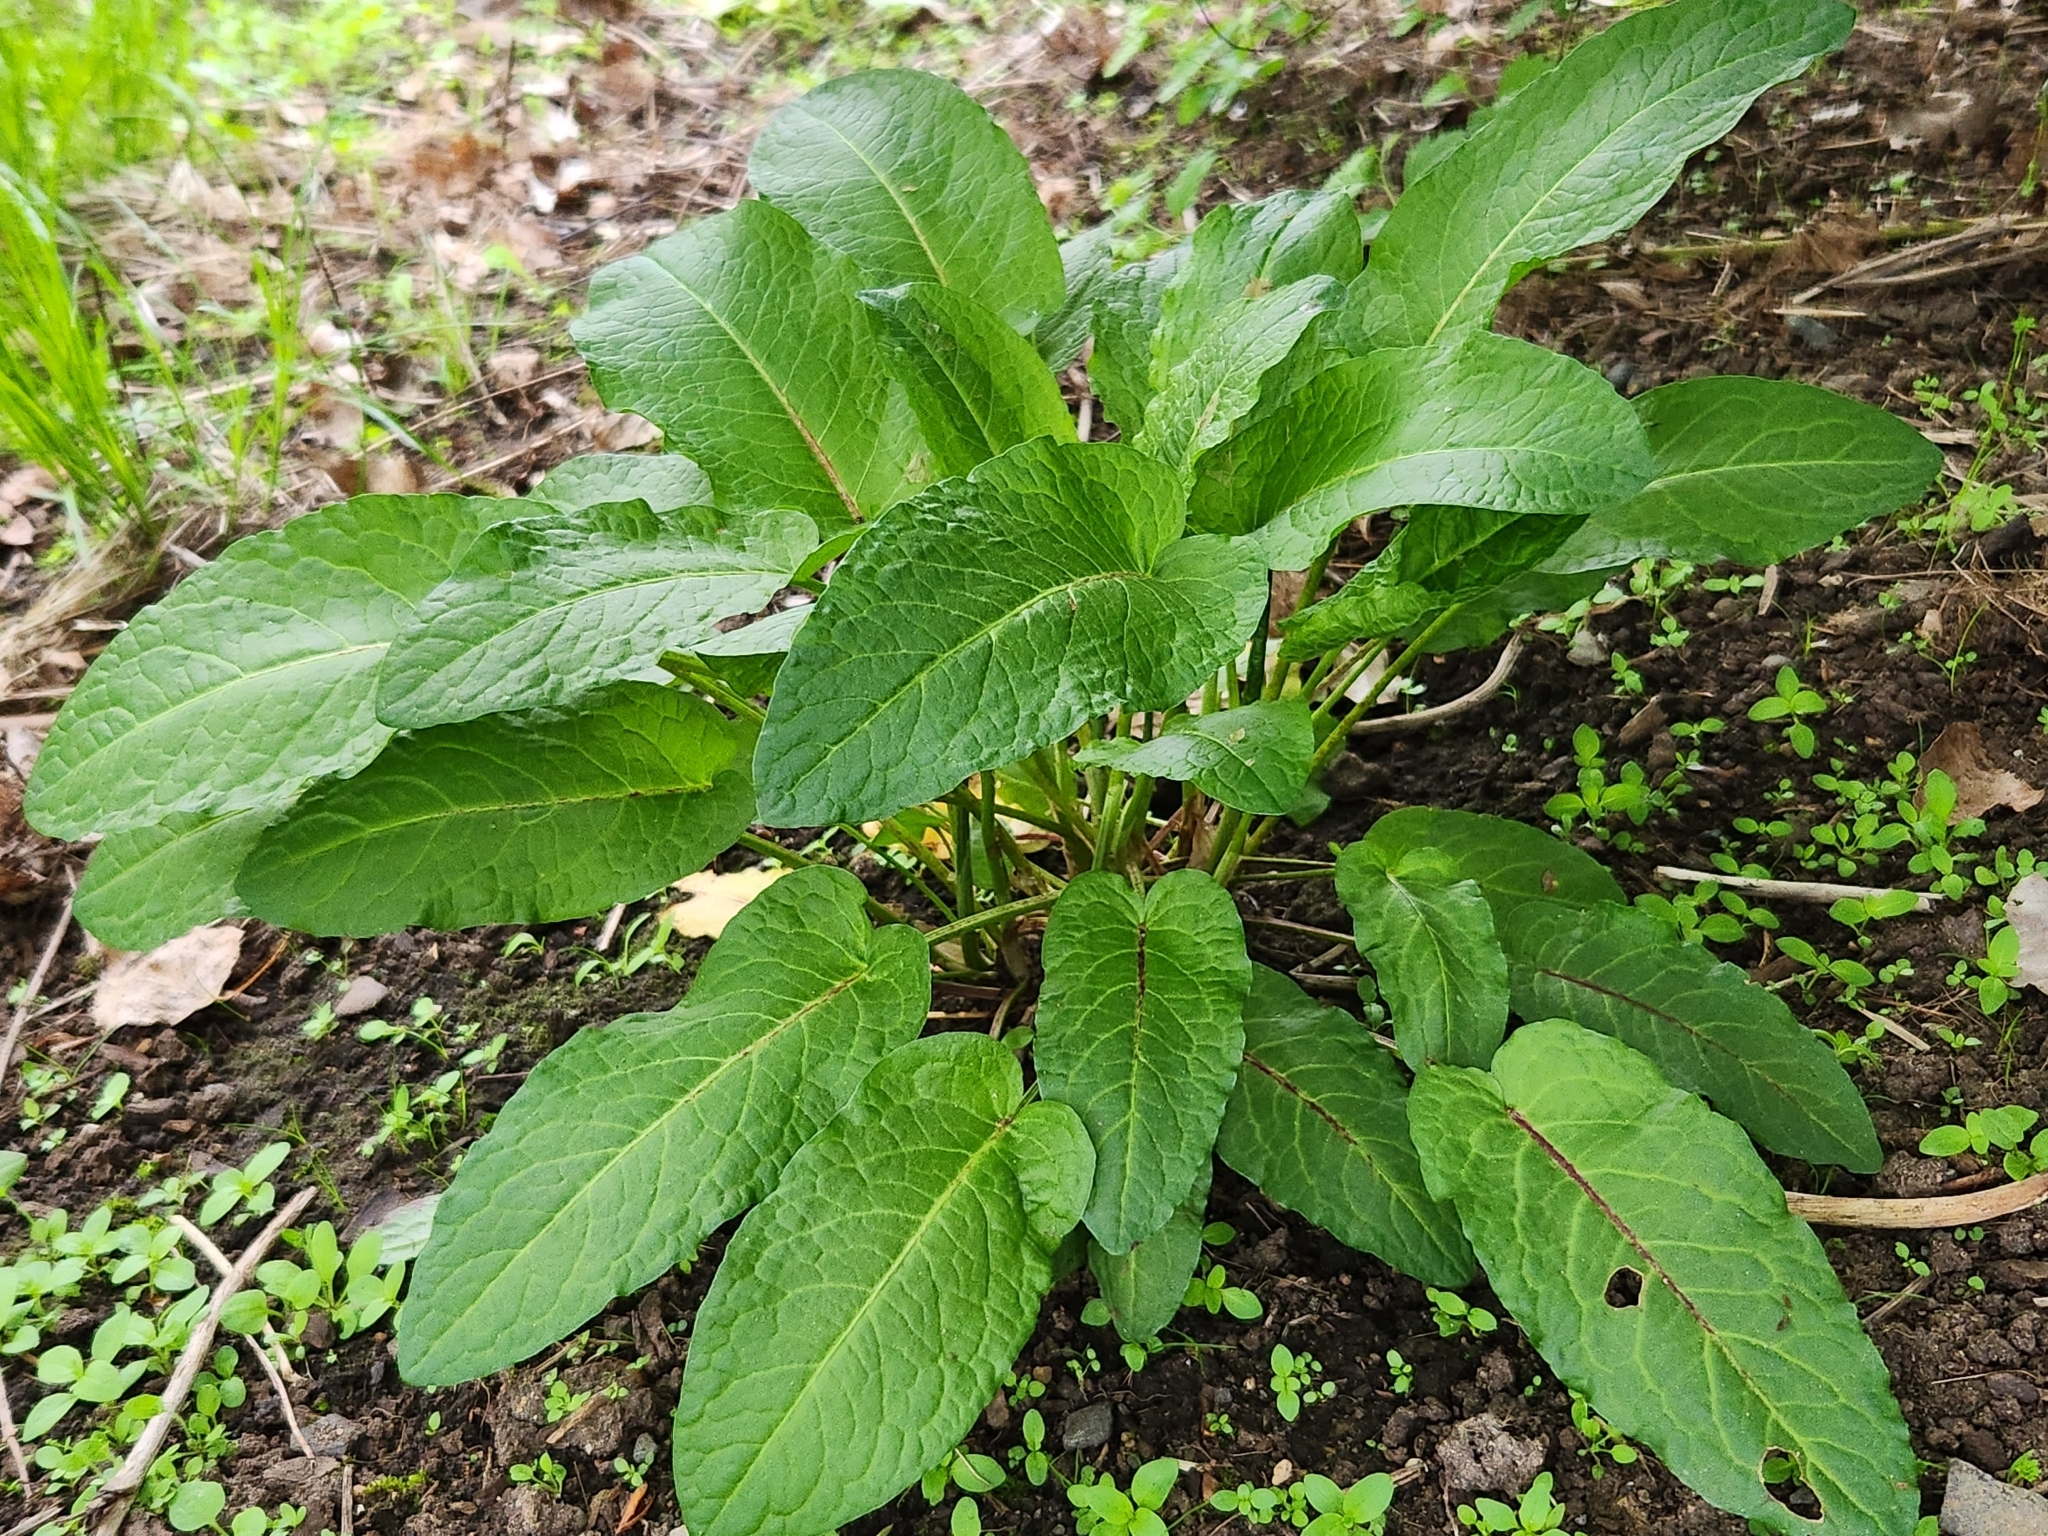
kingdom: Plantae
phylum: Tracheophyta
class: Magnoliopsida
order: Caryophyllales
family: Polygonaceae
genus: Rumex
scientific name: Rumex obtusifolius
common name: Bitter dock
